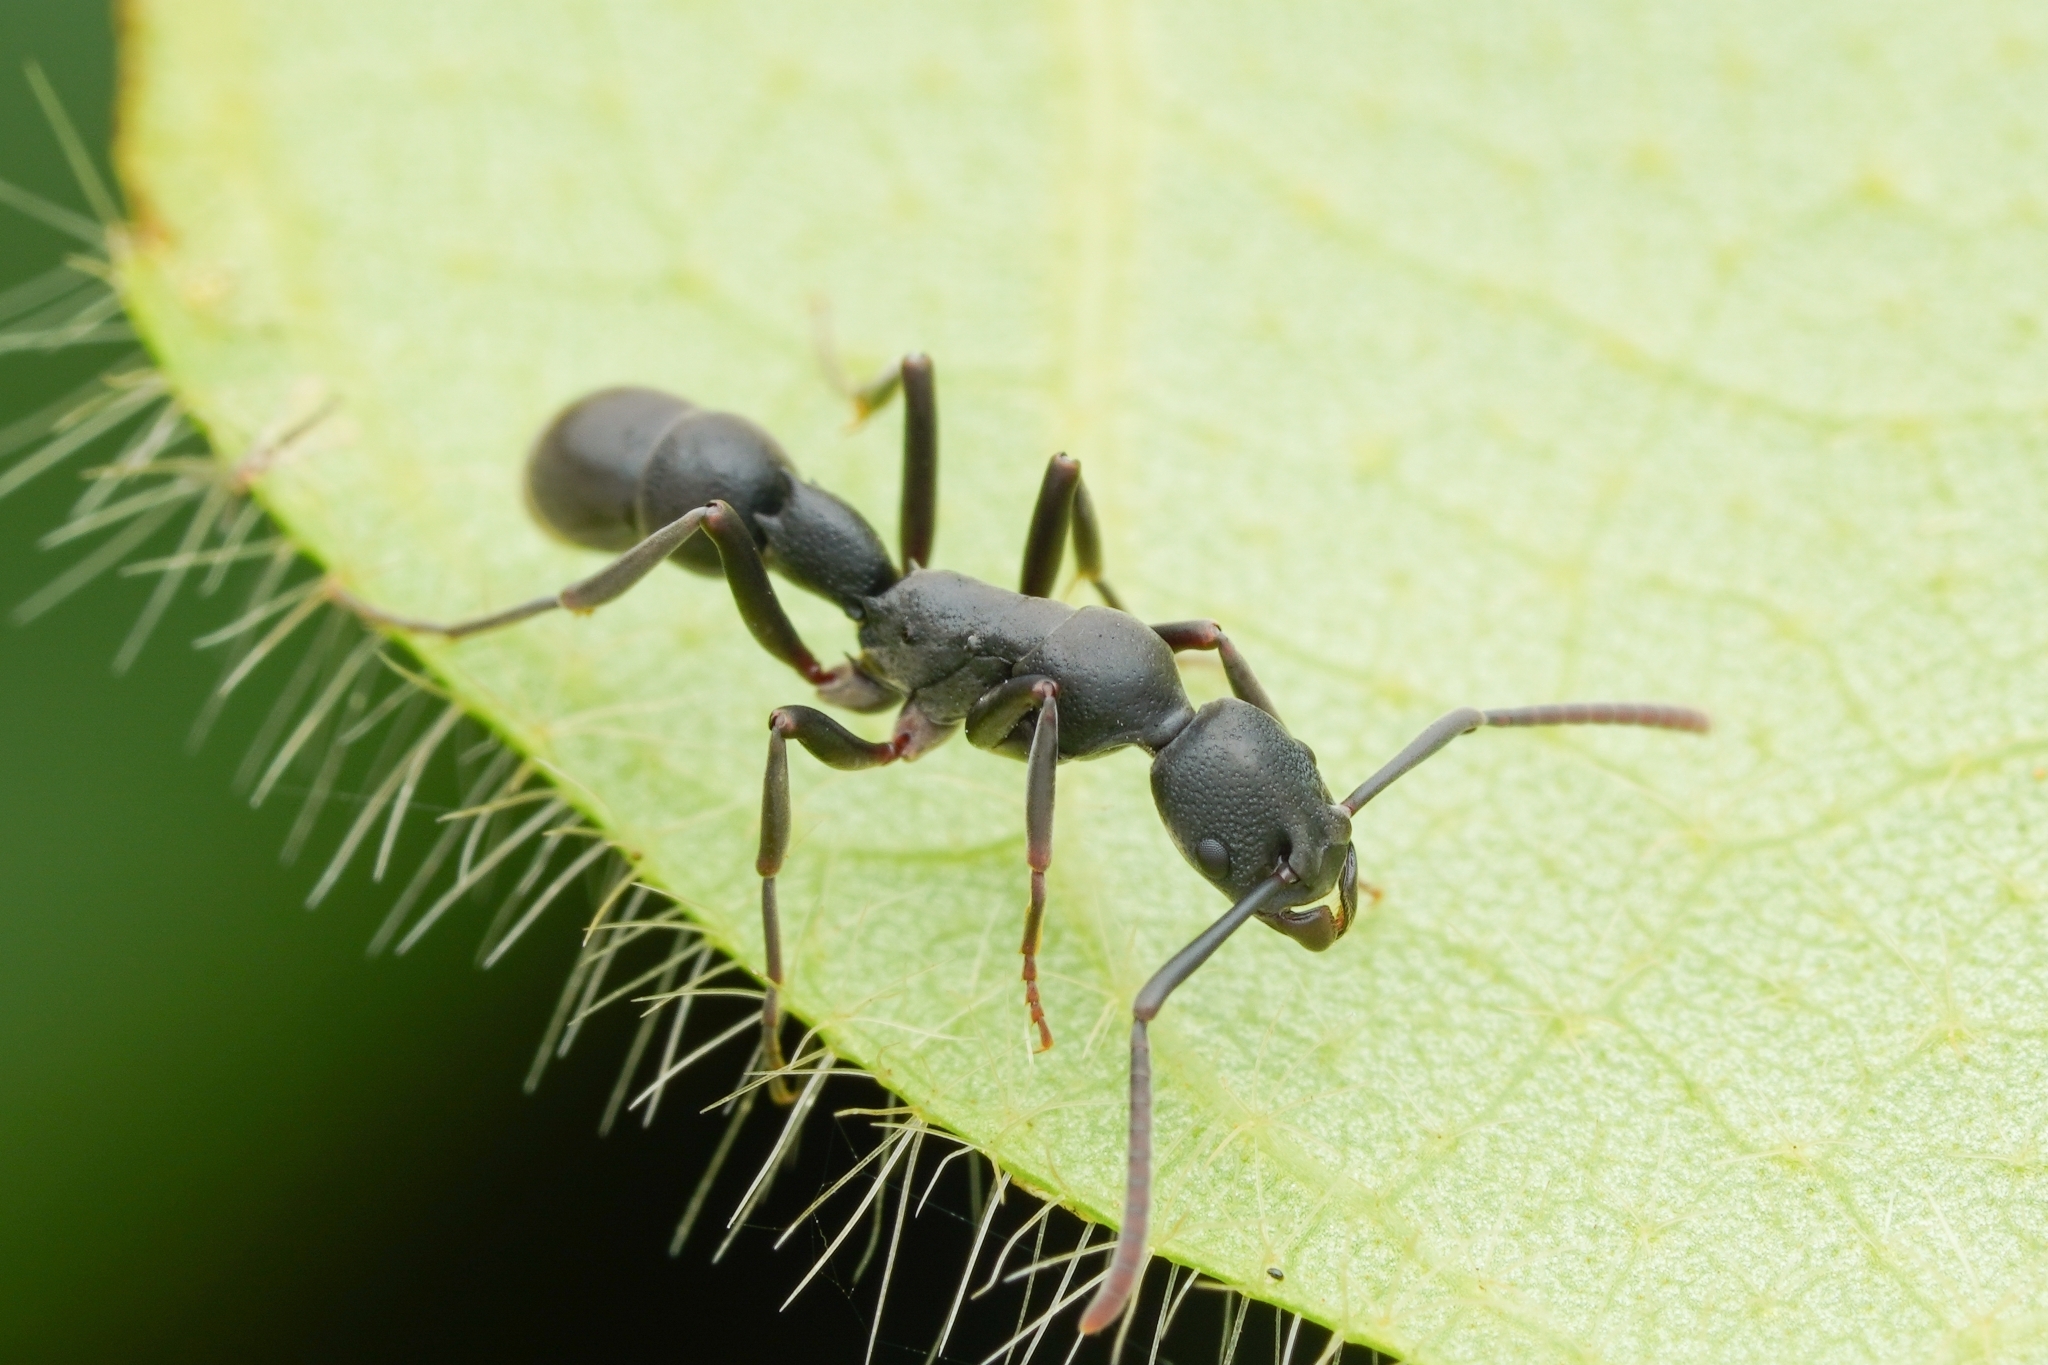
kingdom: Animalia
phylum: Arthropoda
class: Insecta
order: Hymenoptera
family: Formicidae
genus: Platythyrea
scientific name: Platythyrea tricuspidata
